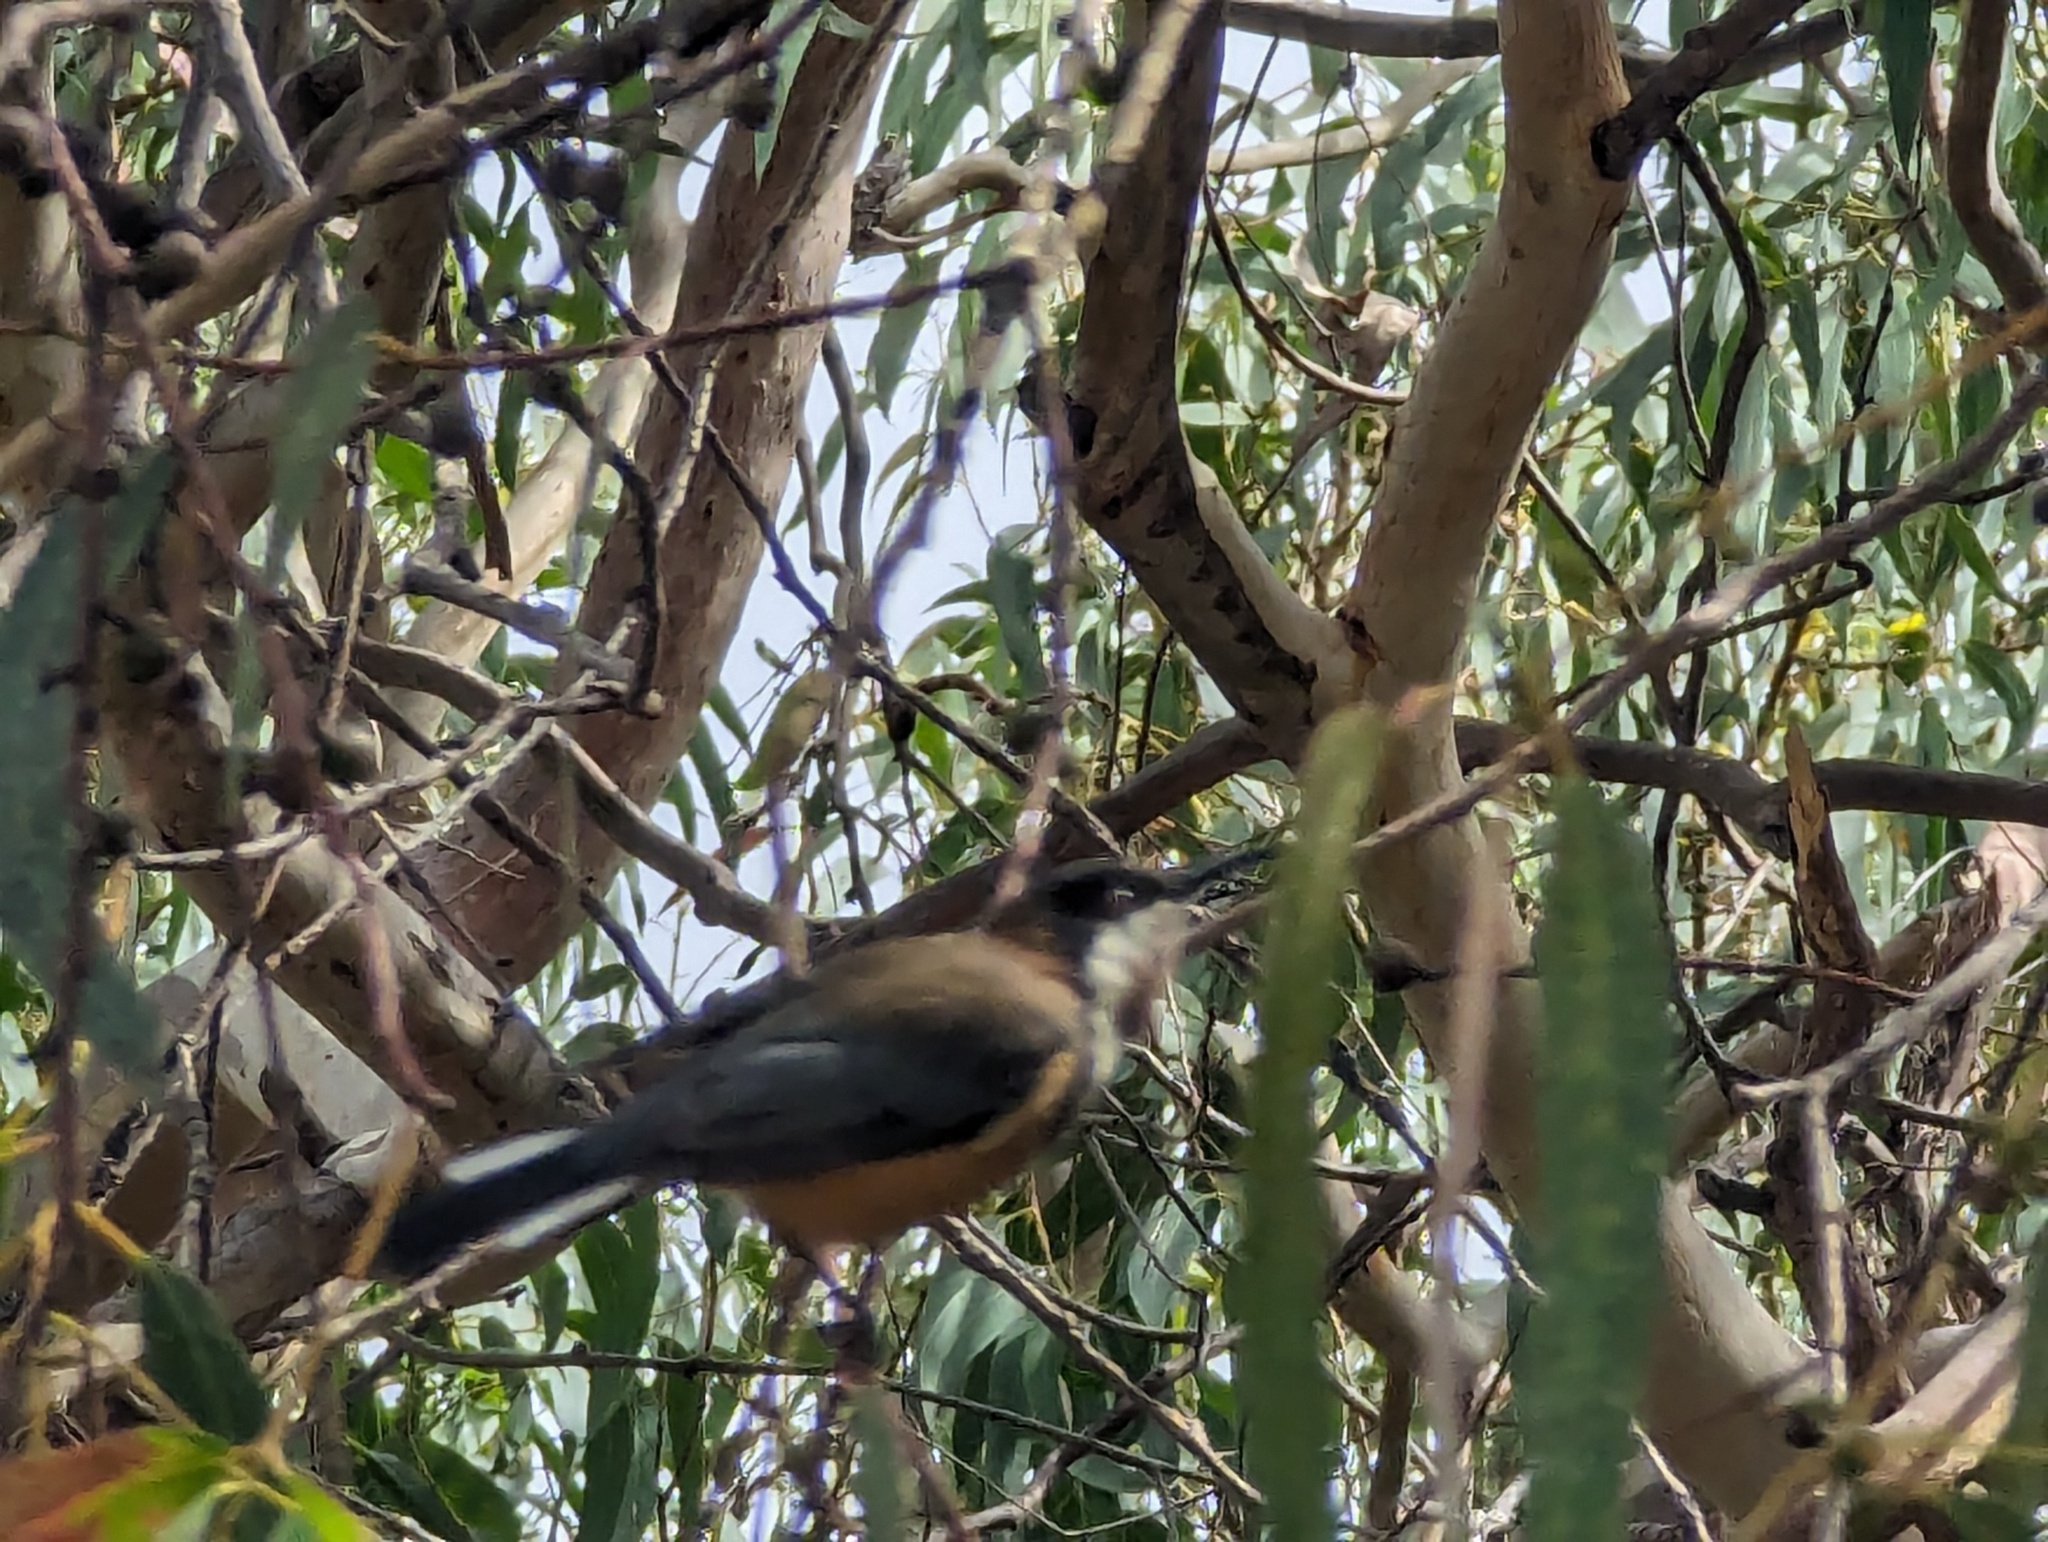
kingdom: Animalia
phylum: Chordata
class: Aves
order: Passeriformes
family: Meliphagidae
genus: Acanthorhynchus
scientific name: Acanthorhynchus tenuirostris
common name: Eastern spinebill
